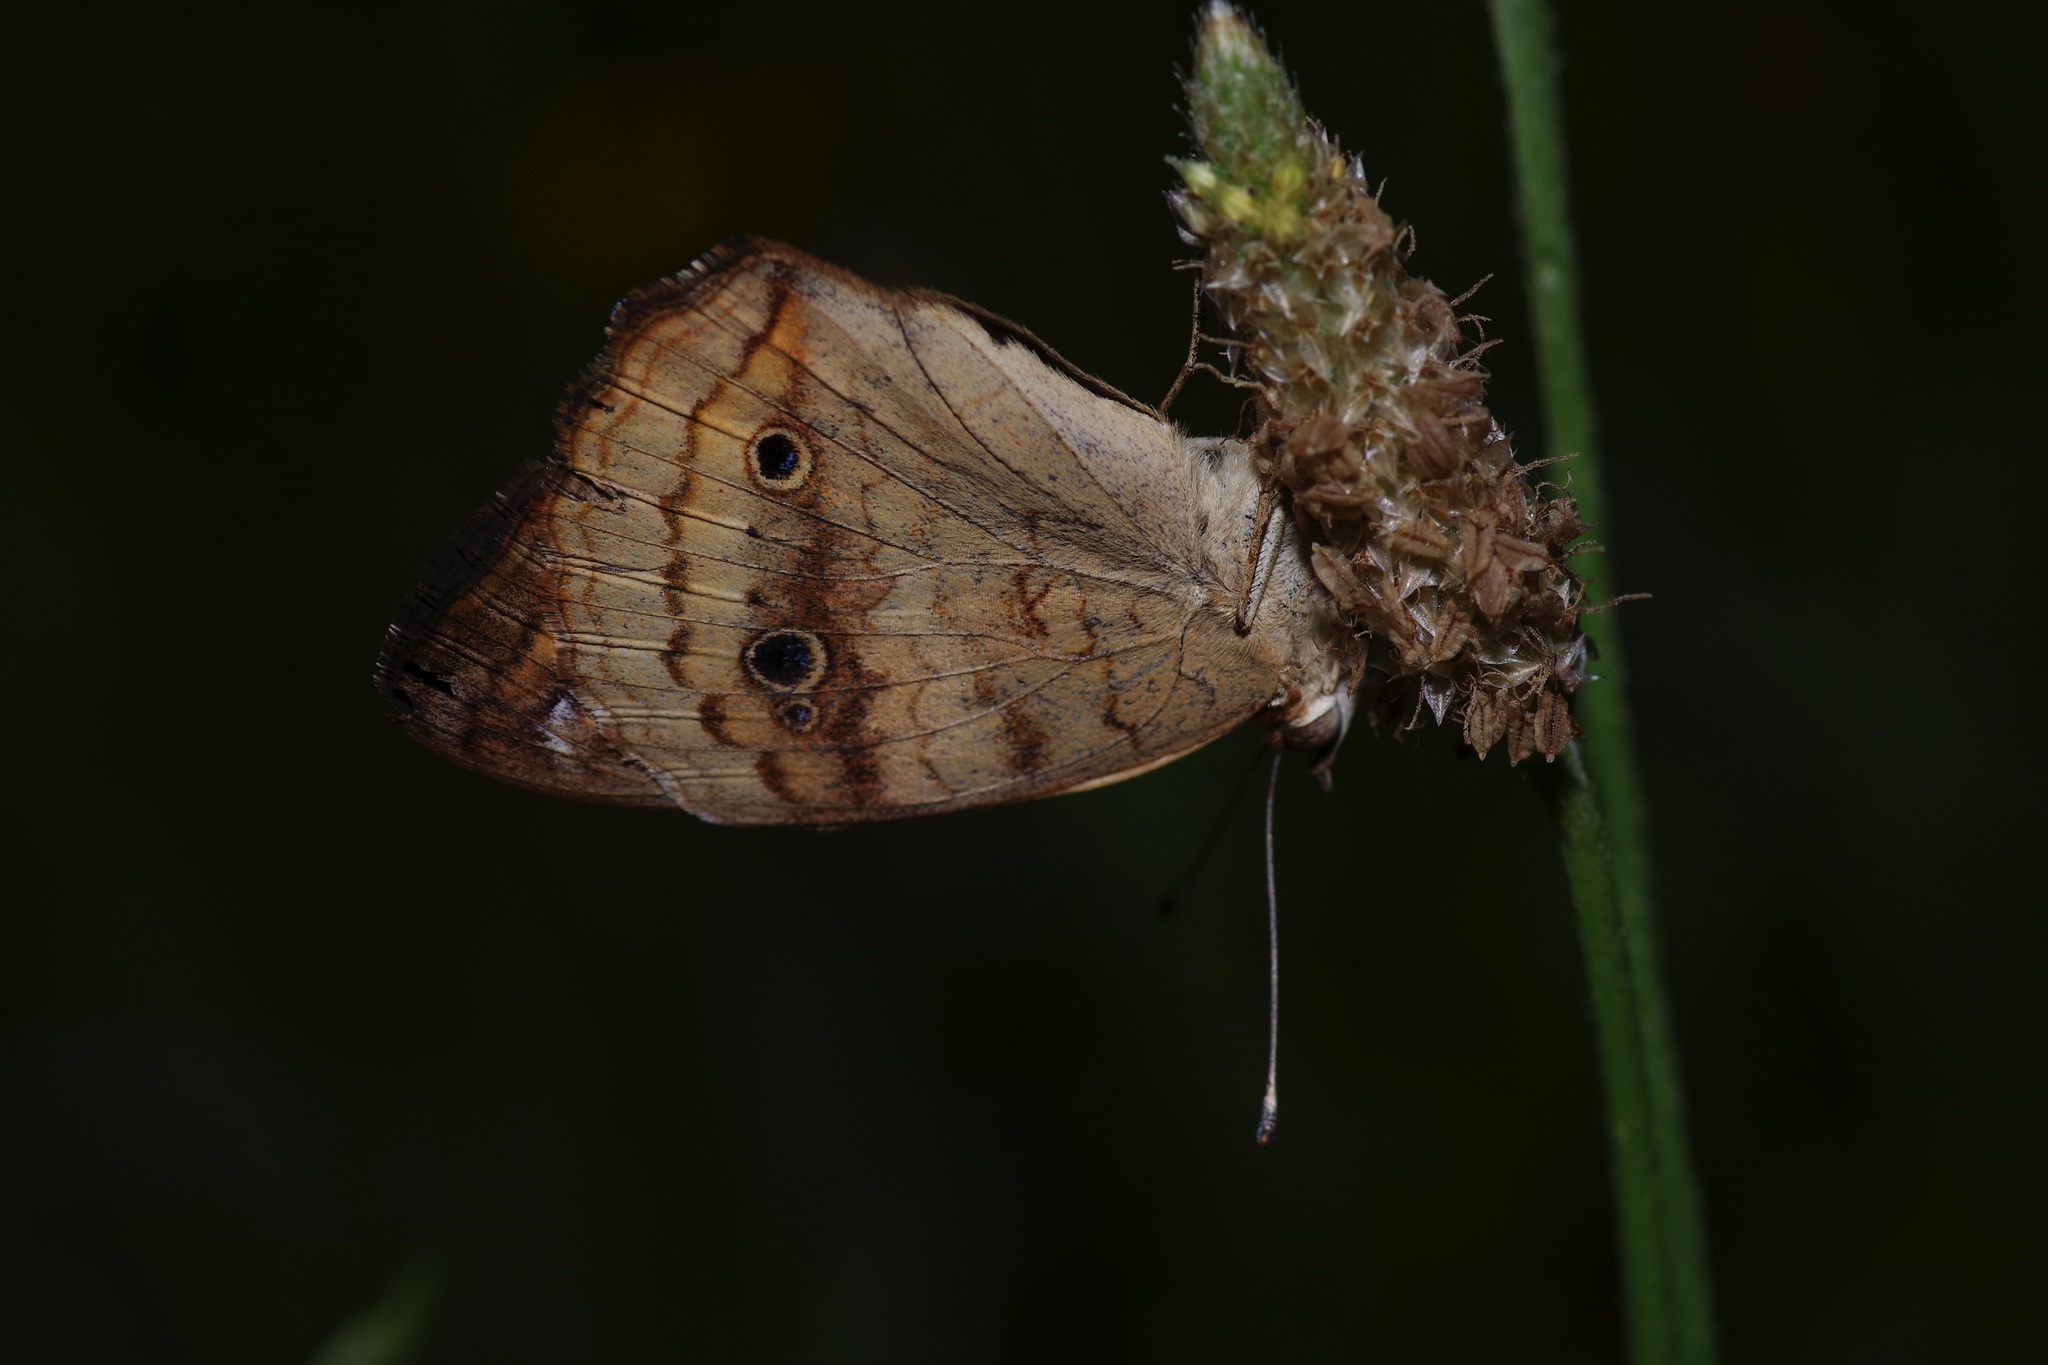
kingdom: Animalia
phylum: Arthropoda
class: Insecta
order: Lepidoptera
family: Nymphalidae
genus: Junonia
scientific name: Junonia coenia
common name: Common buckeye
